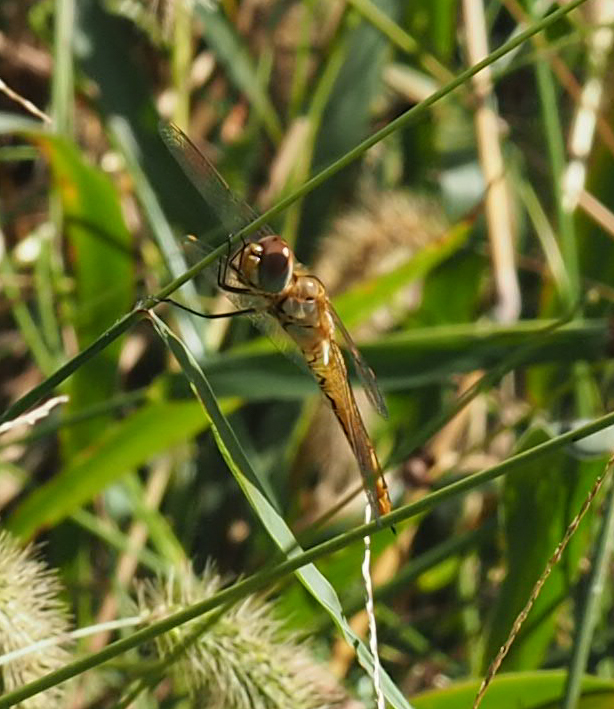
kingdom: Animalia
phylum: Arthropoda
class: Insecta
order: Odonata
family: Libellulidae
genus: Pantala
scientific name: Pantala flavescens
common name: Wandering glider
